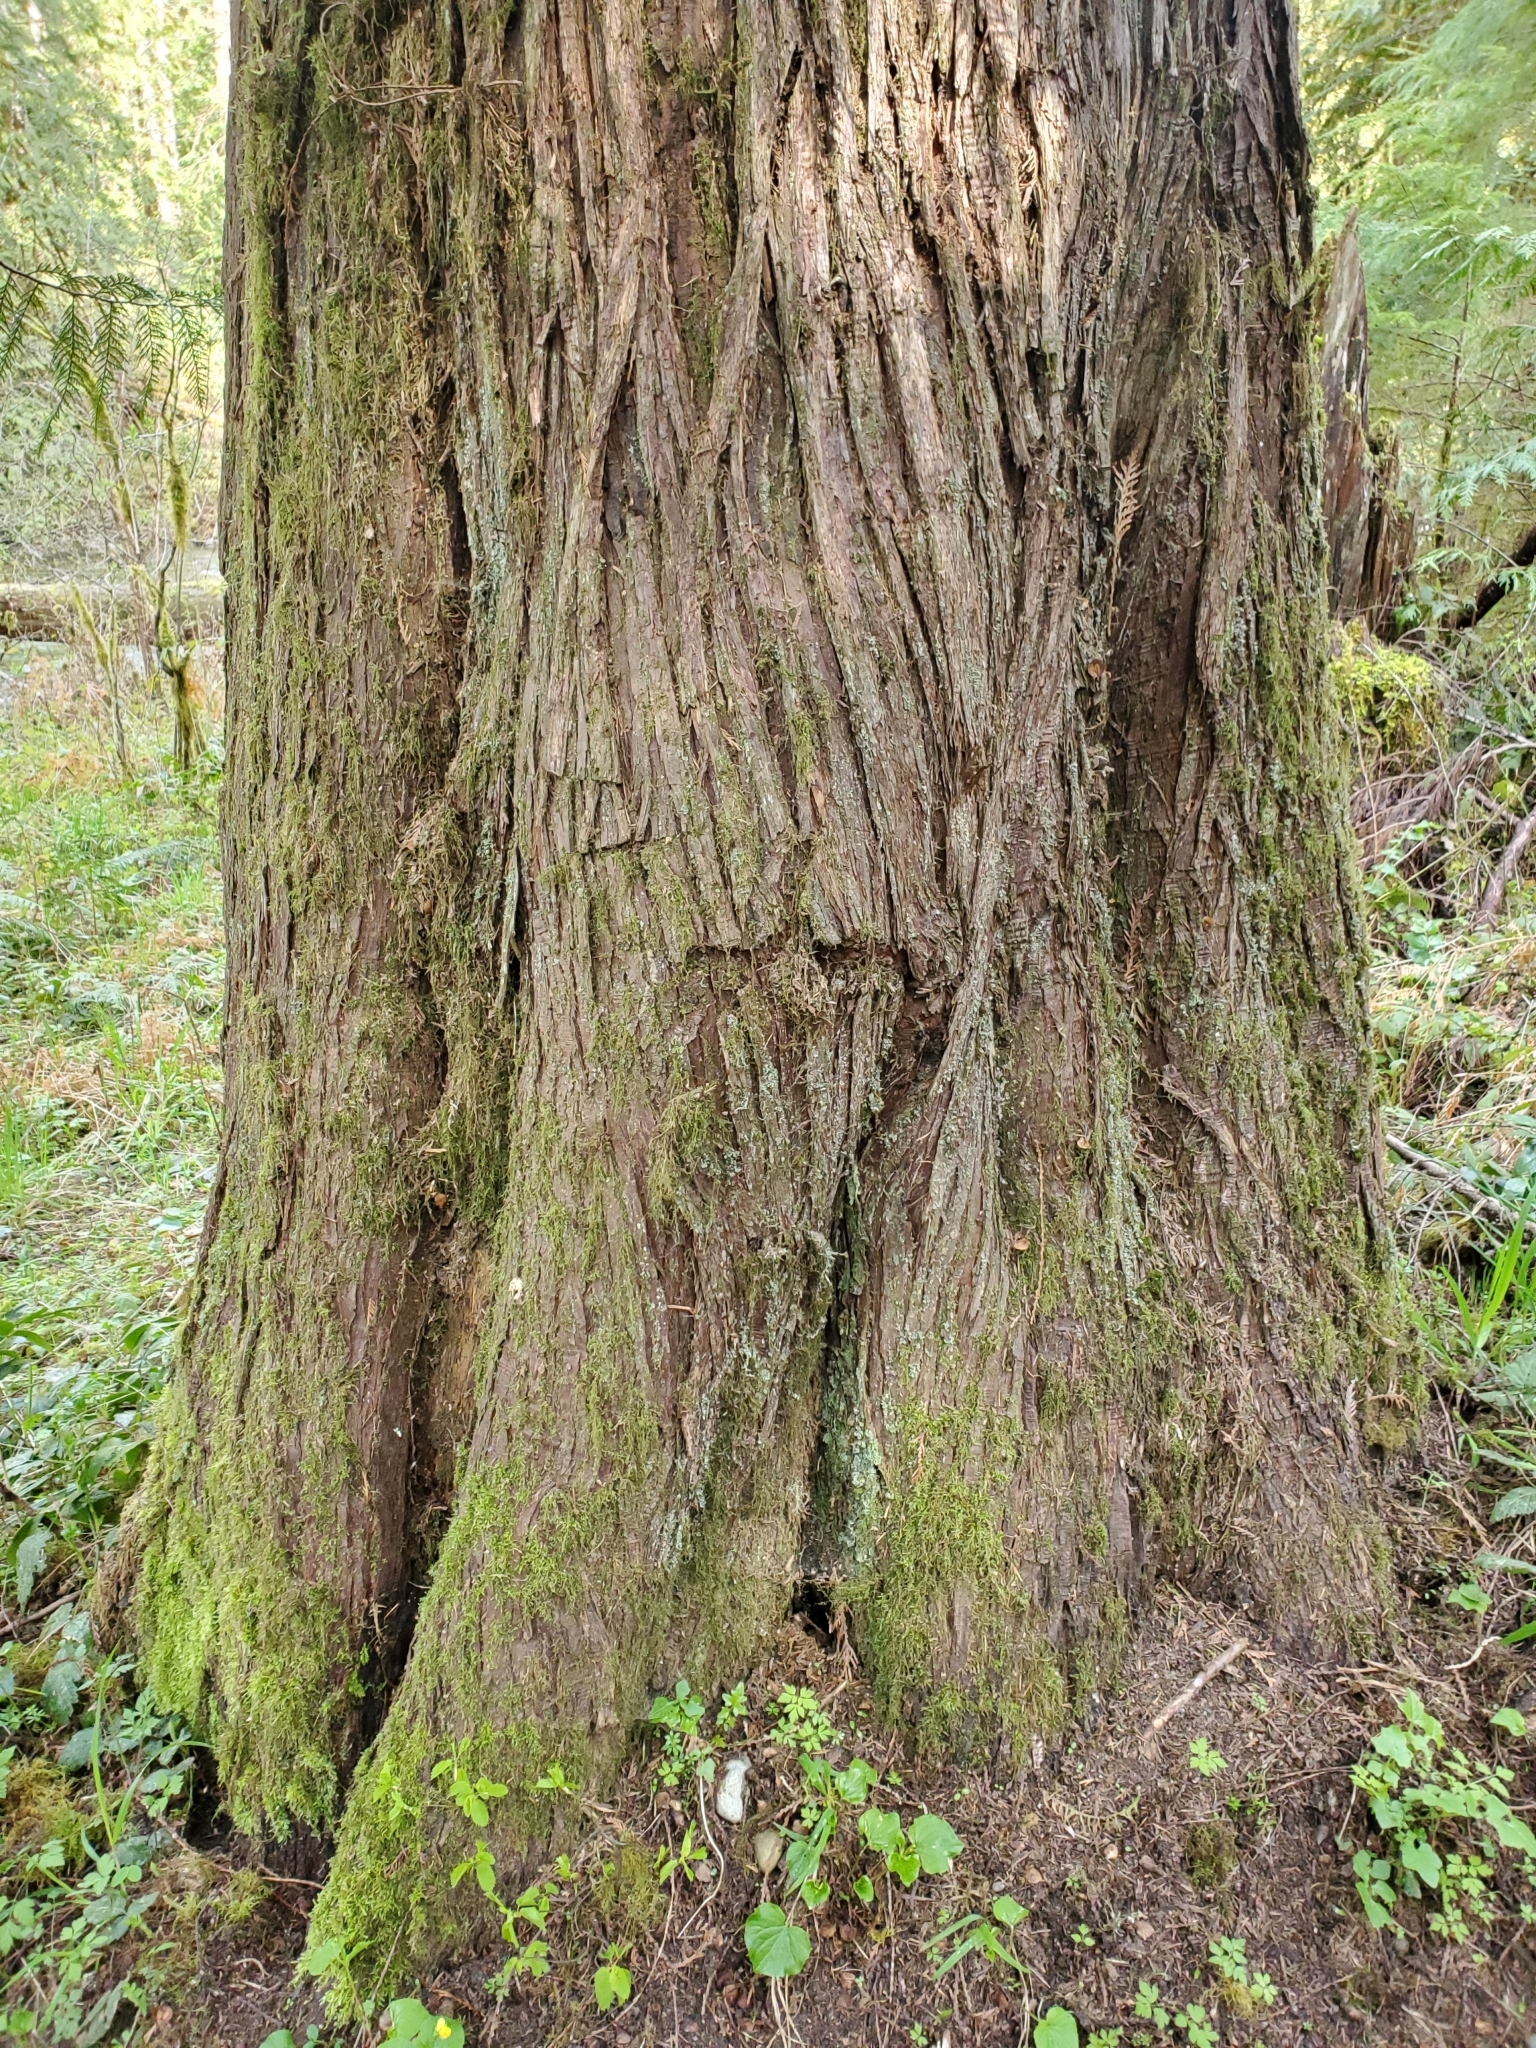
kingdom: Plantae
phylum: Tracheophyta
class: Pinopsida
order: Pinales
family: Cupressaceae
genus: Thuja
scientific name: Thuja plicata
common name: Western red-cedar
